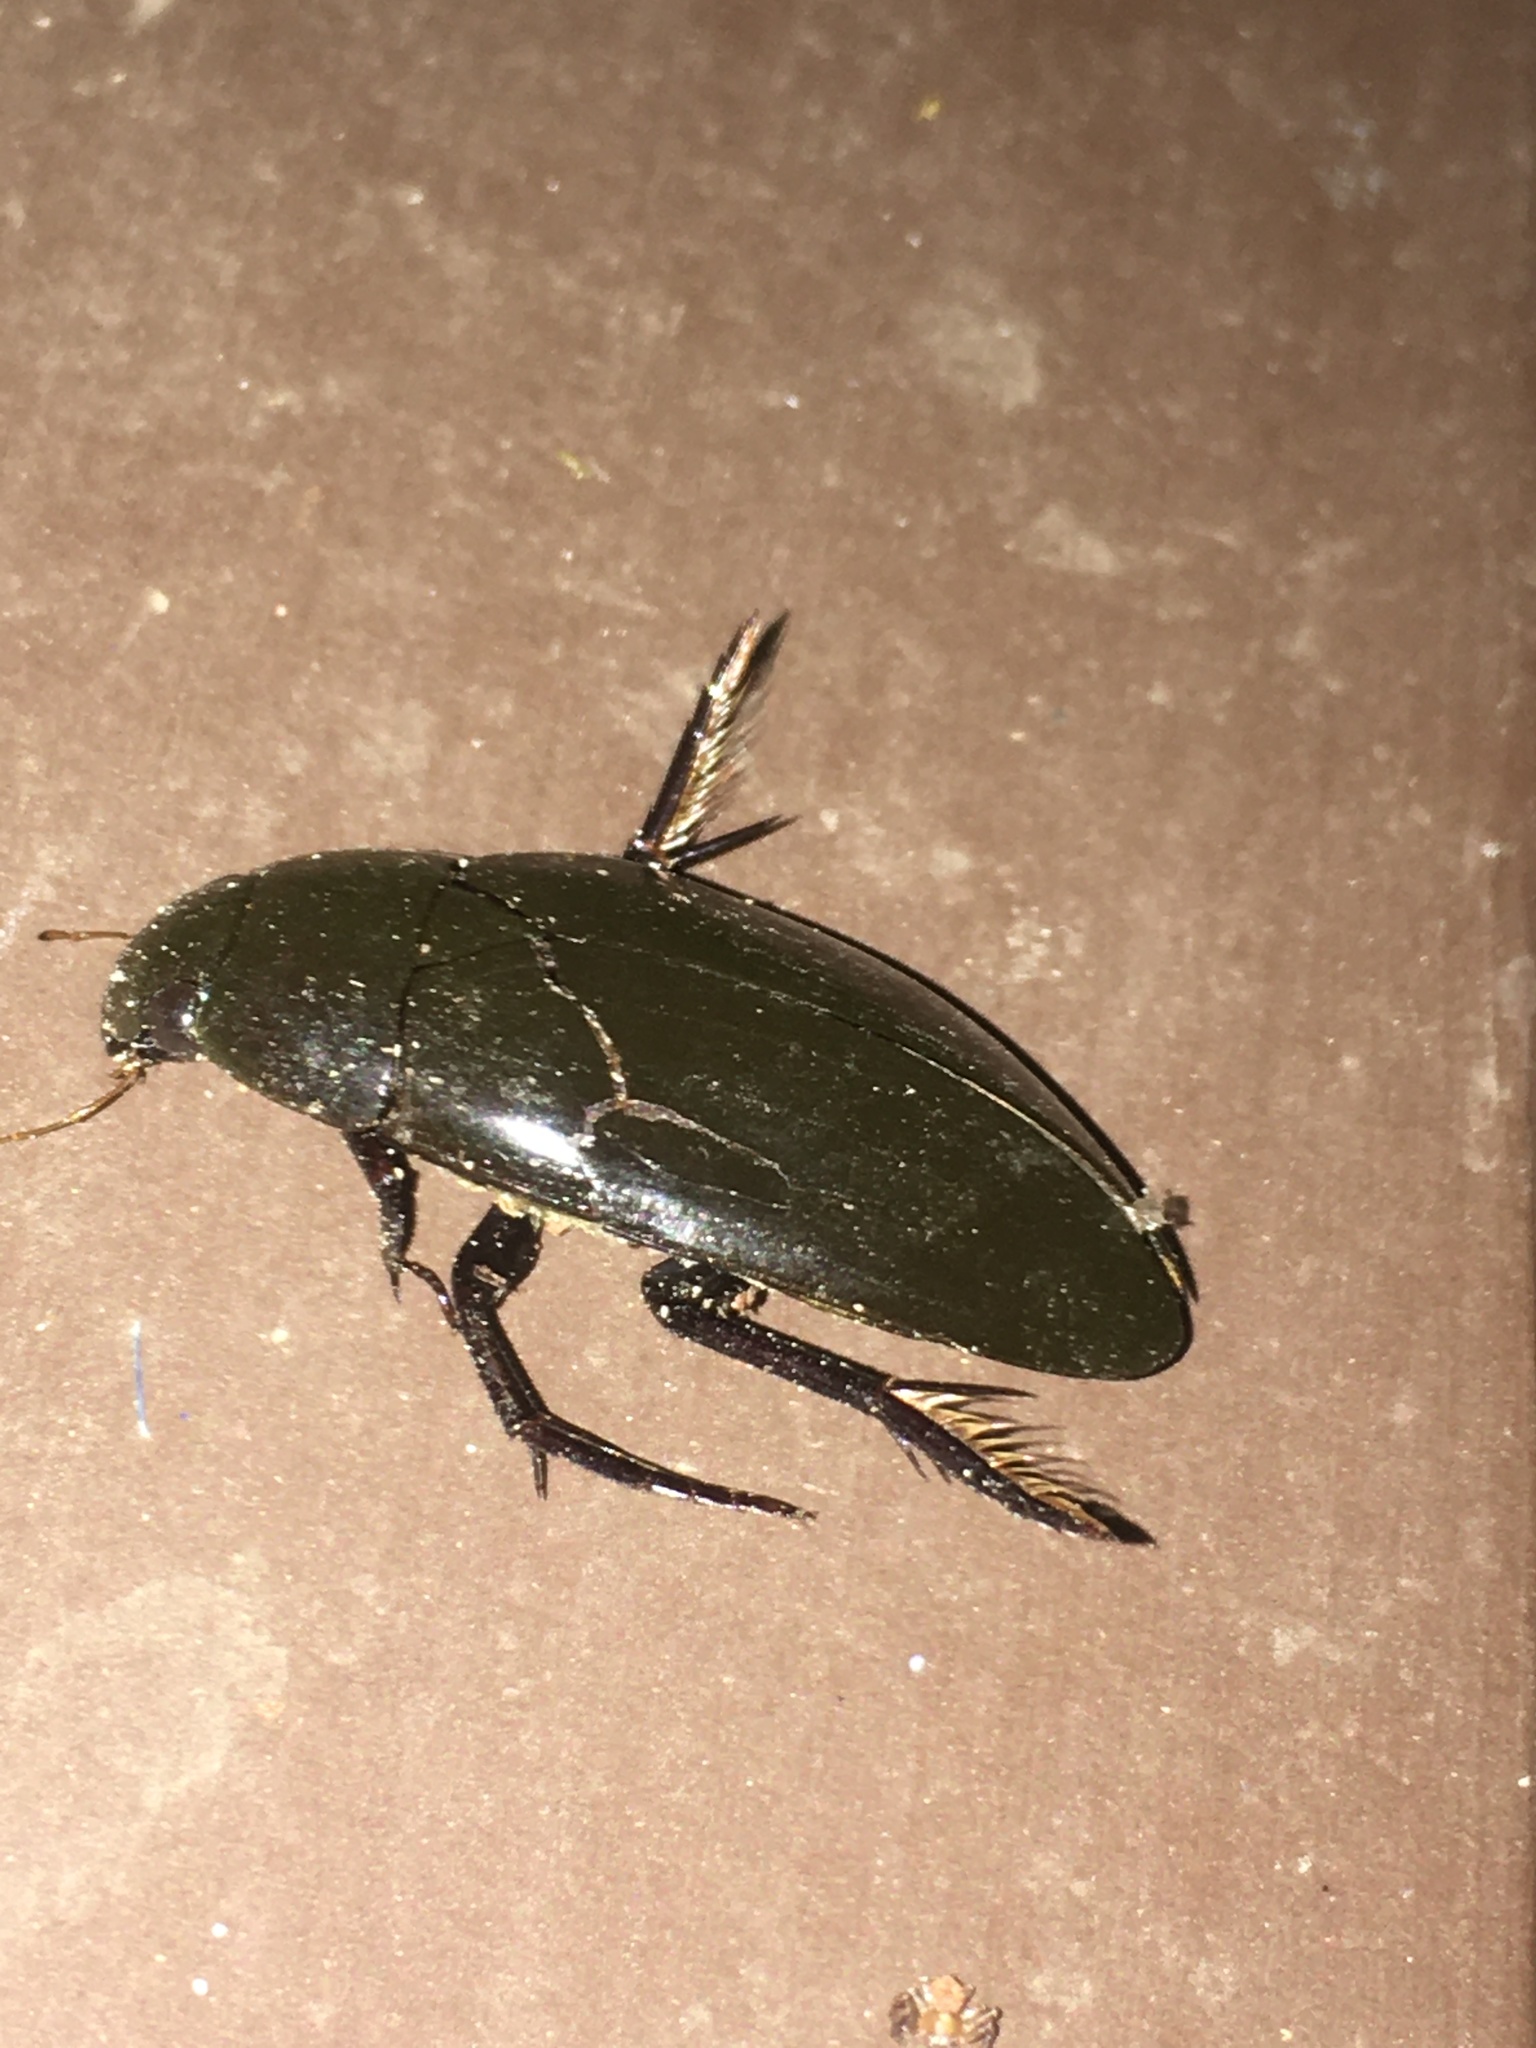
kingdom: Animalia
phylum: Arthropoda
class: Insecta
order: Coleoptera
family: Hydrophilidae
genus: Hydrophilus
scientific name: Hydrophilus triangularis
